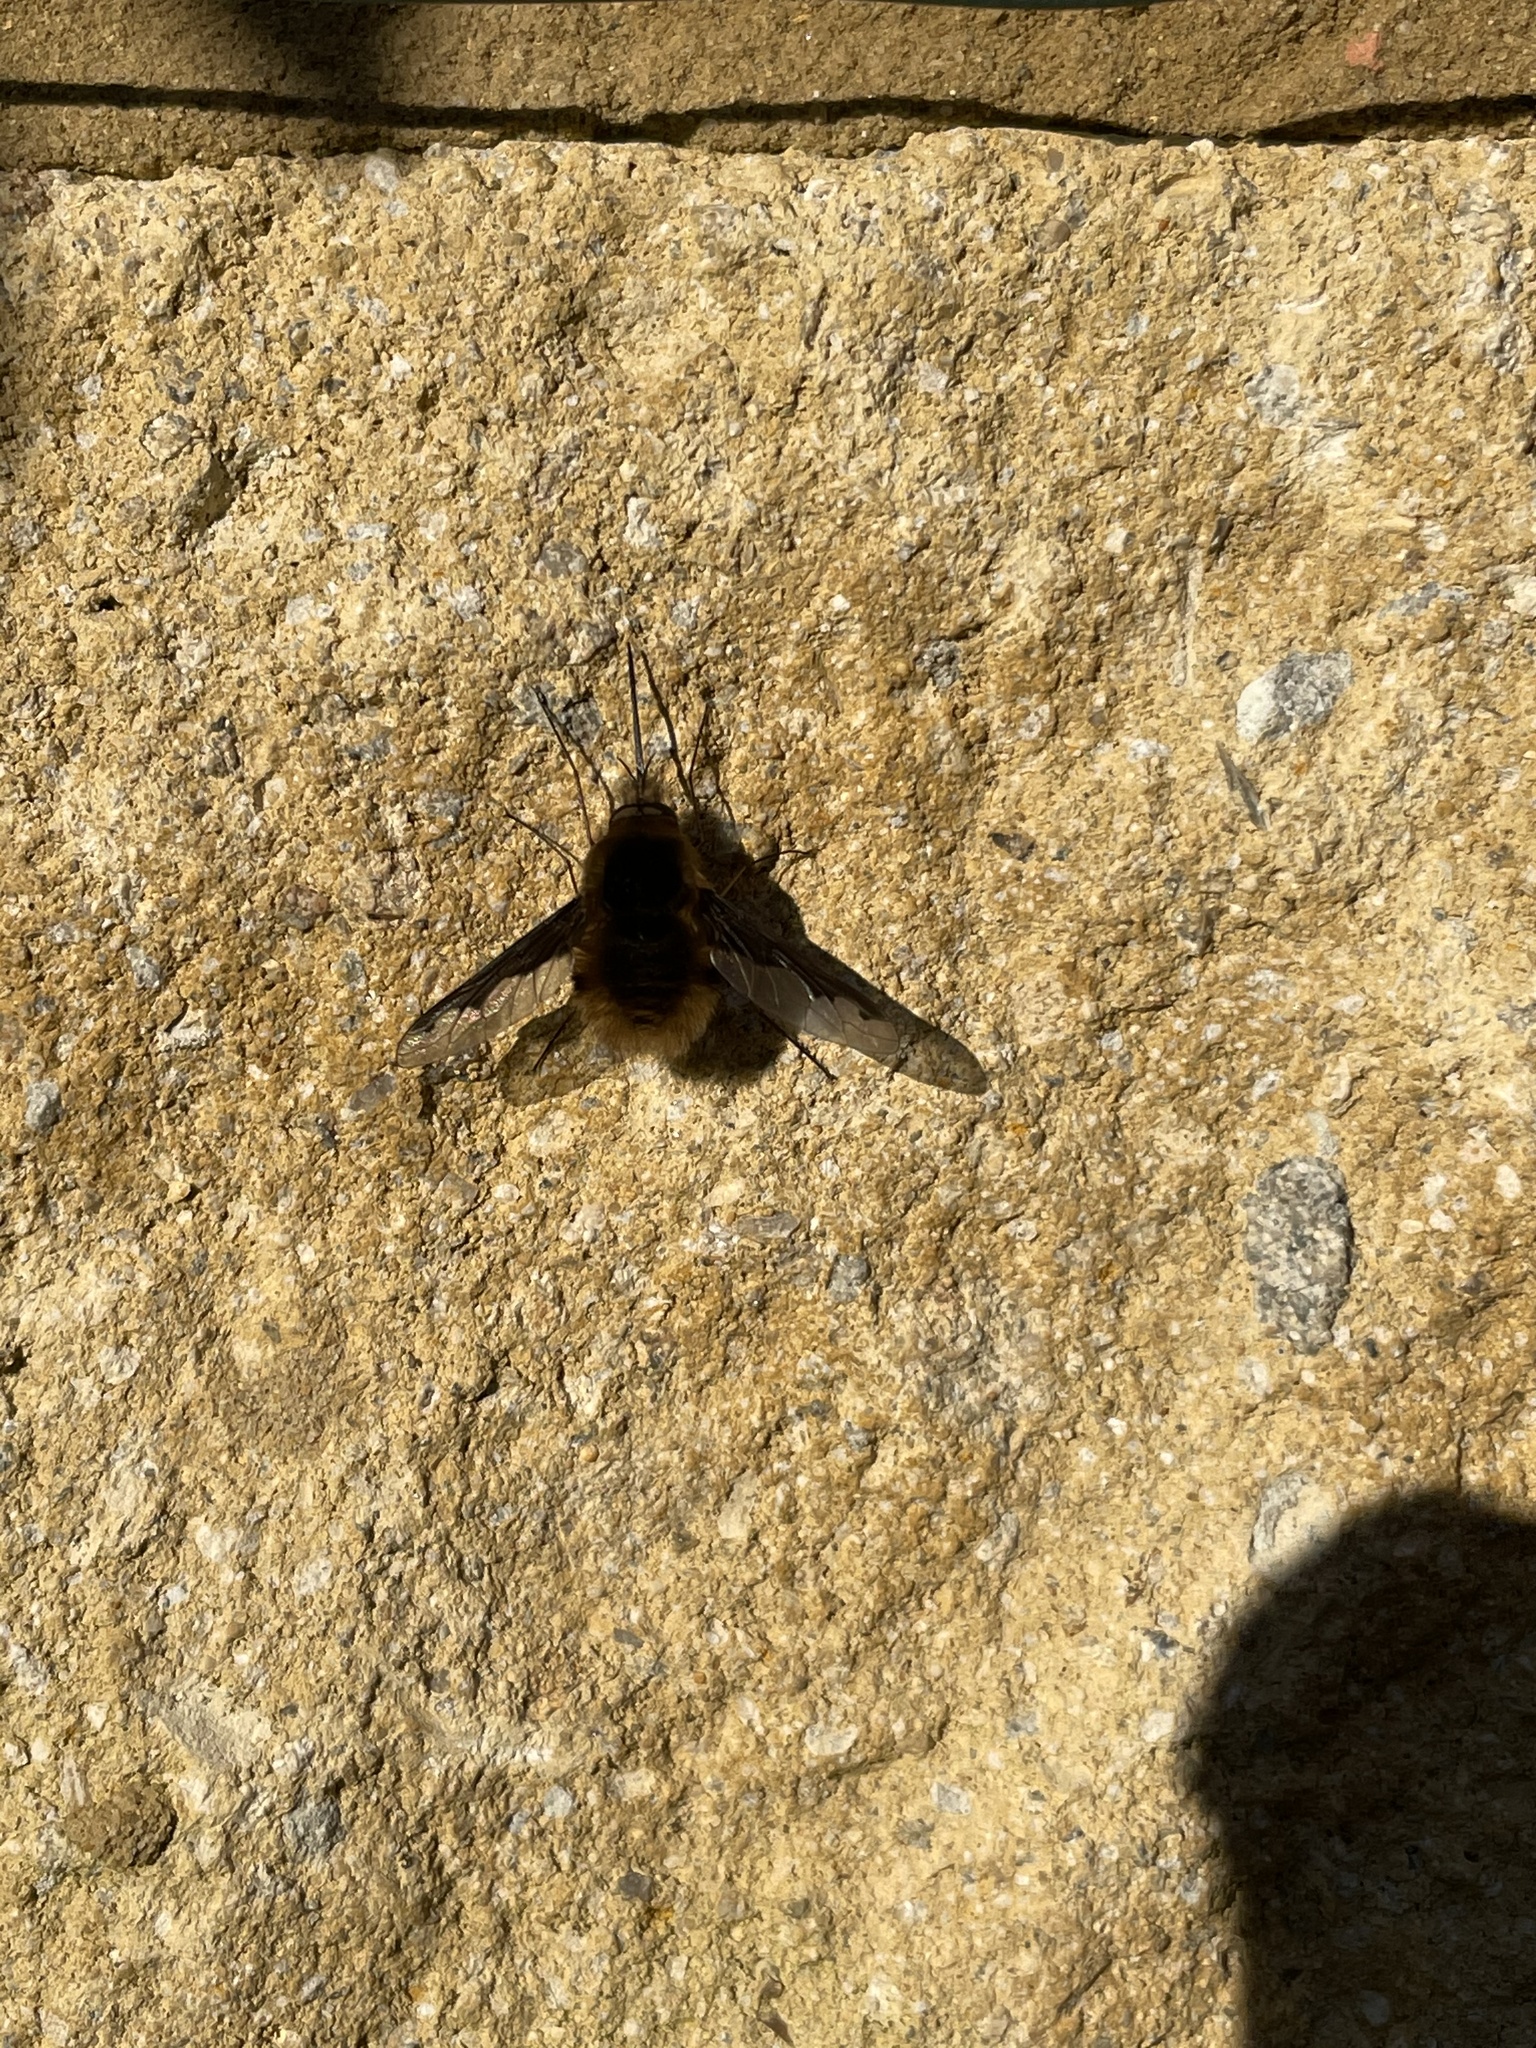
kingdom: Animalia
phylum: Arthropoda
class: Insecta
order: Diptera
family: Bombyliidae
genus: Bombylius
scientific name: Bombylius major
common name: Bee fly
